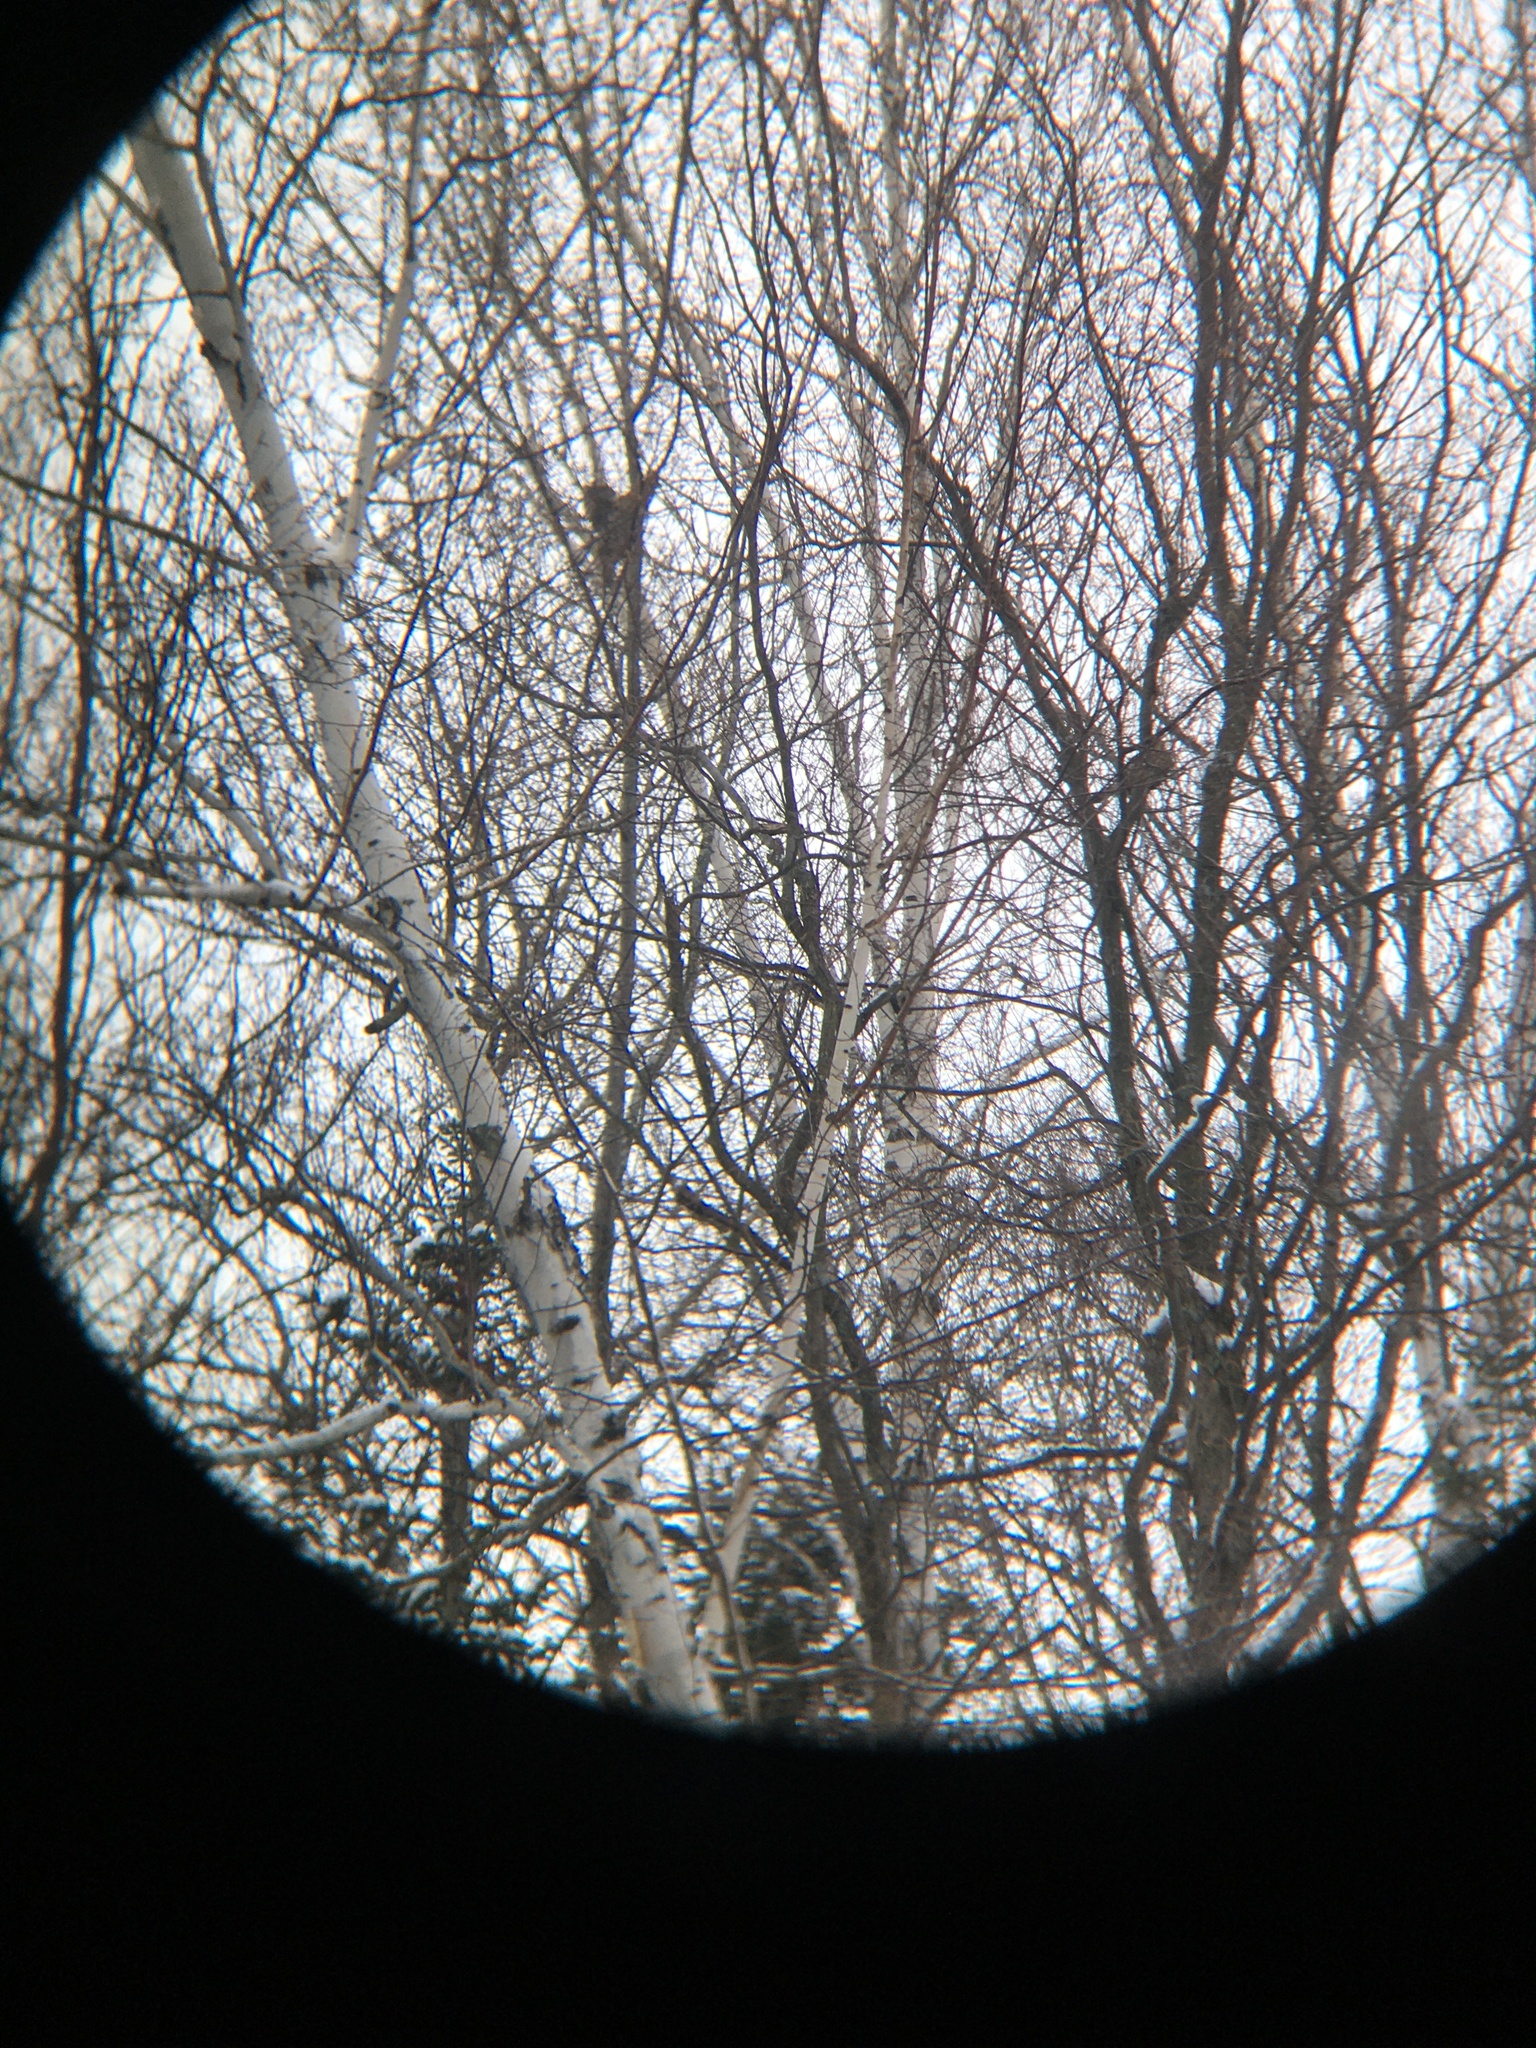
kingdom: Animalia
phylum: Chordata
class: Aves
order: Galliformes
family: Phasianidae
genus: Bonasa
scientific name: Bonasa umbellus
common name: Ruffed grouse
